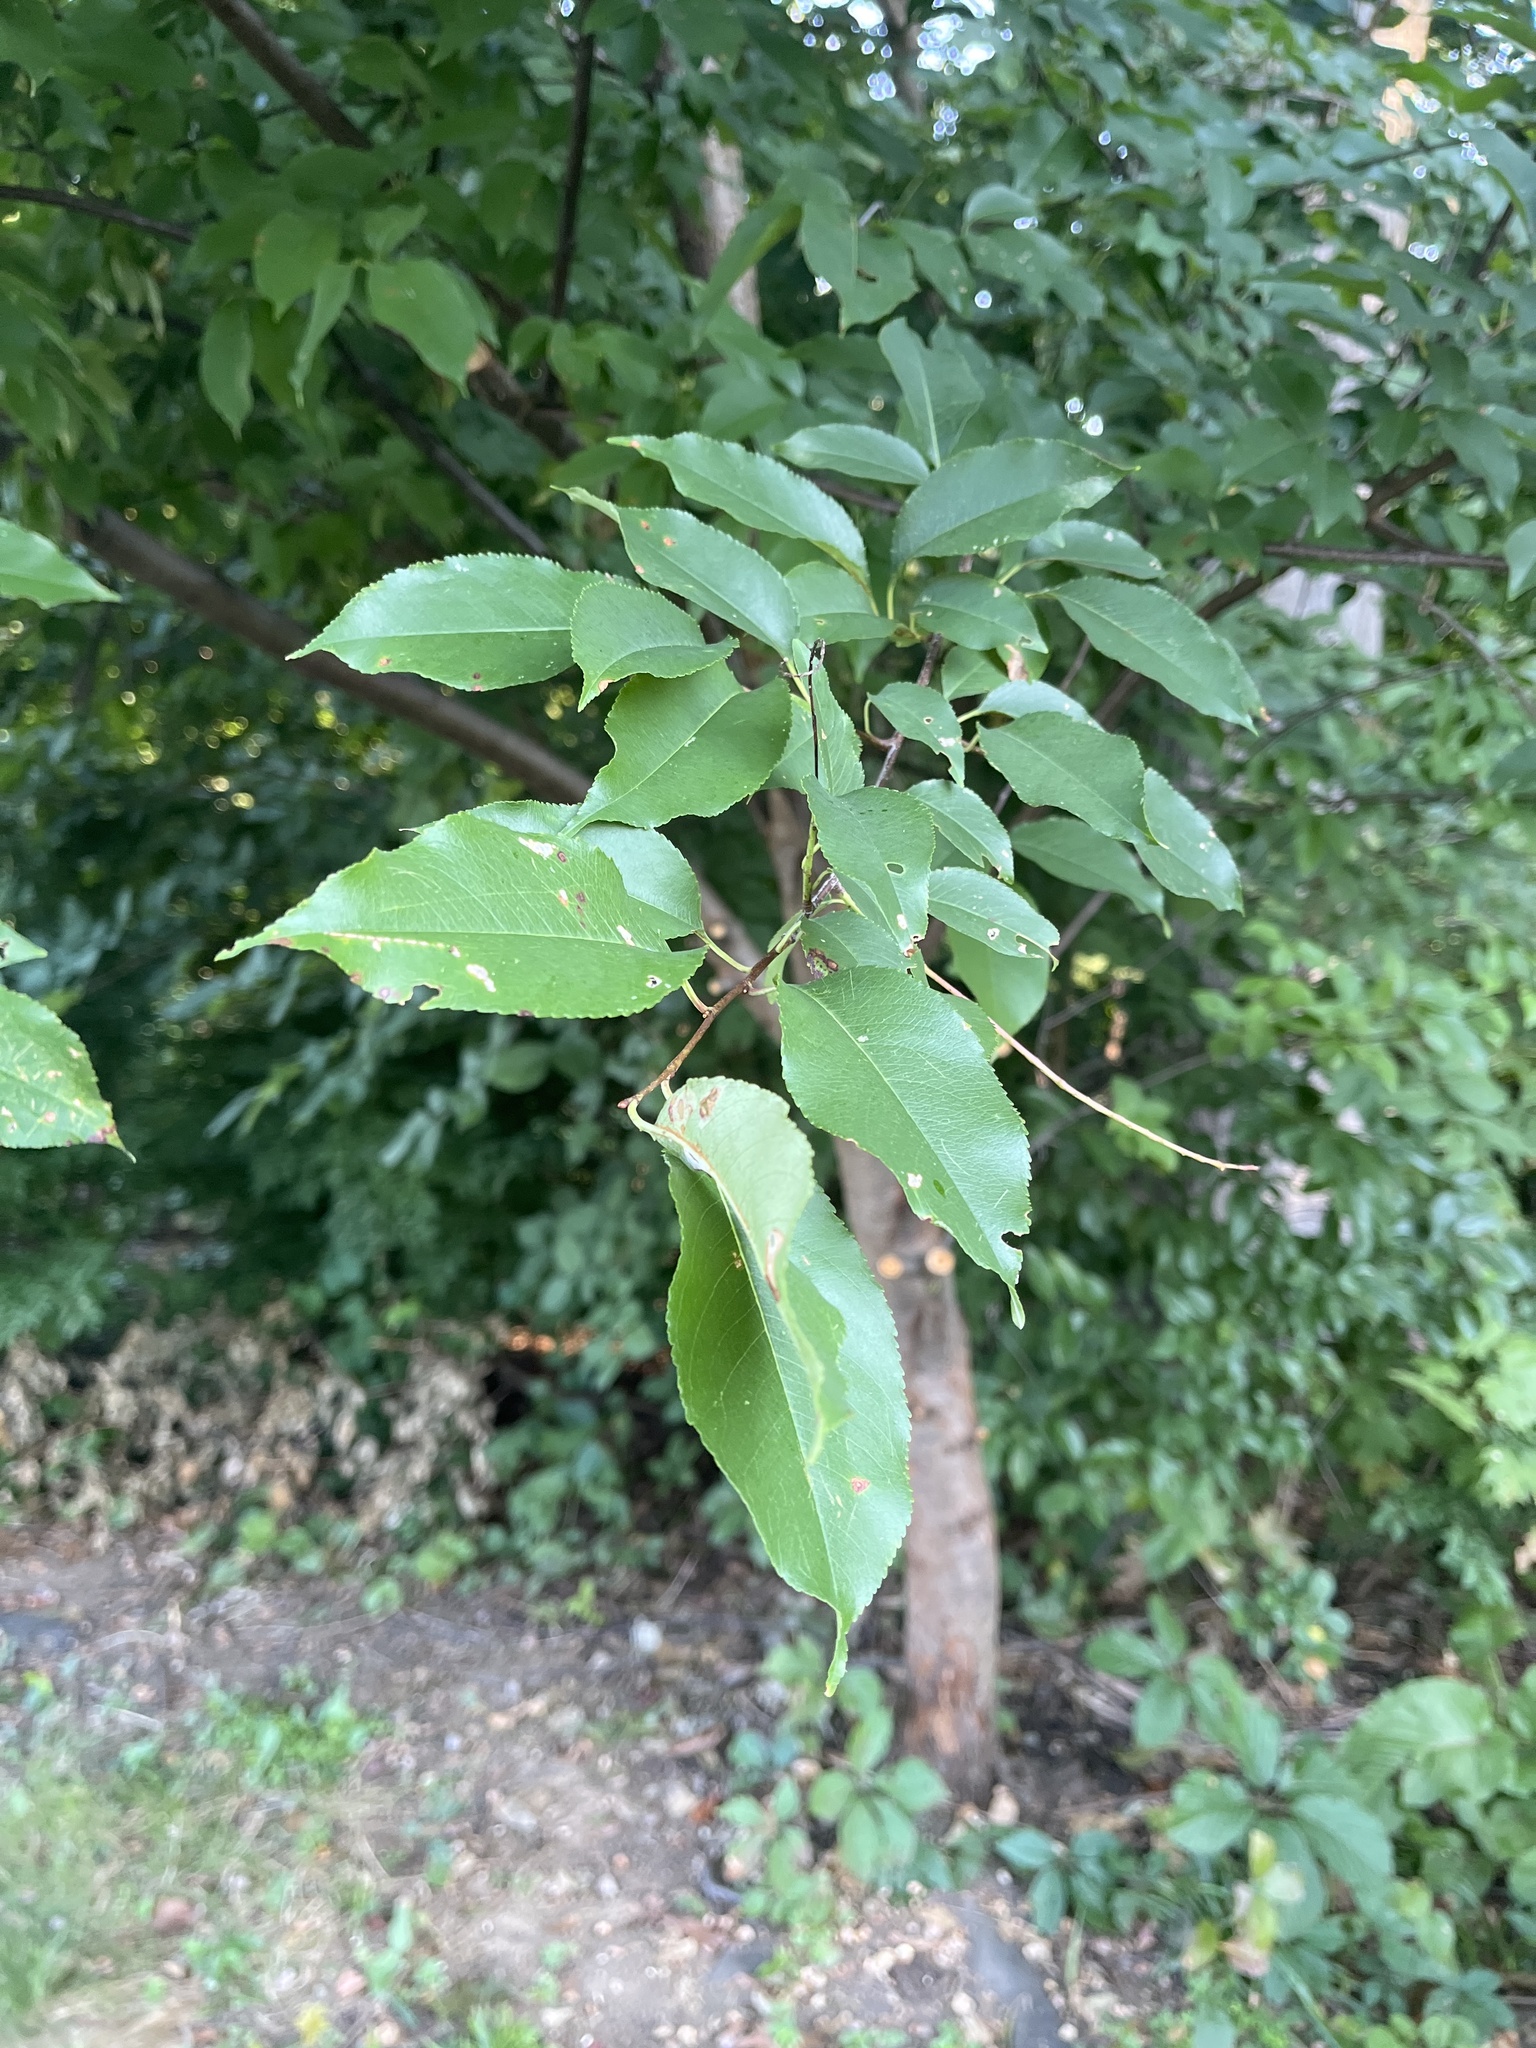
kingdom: Plantae
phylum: Tracheophyta
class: Magnoliopsida
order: Rosales
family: Rosaceae
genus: Prunus
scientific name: Prunus serotina
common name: Black cherry
